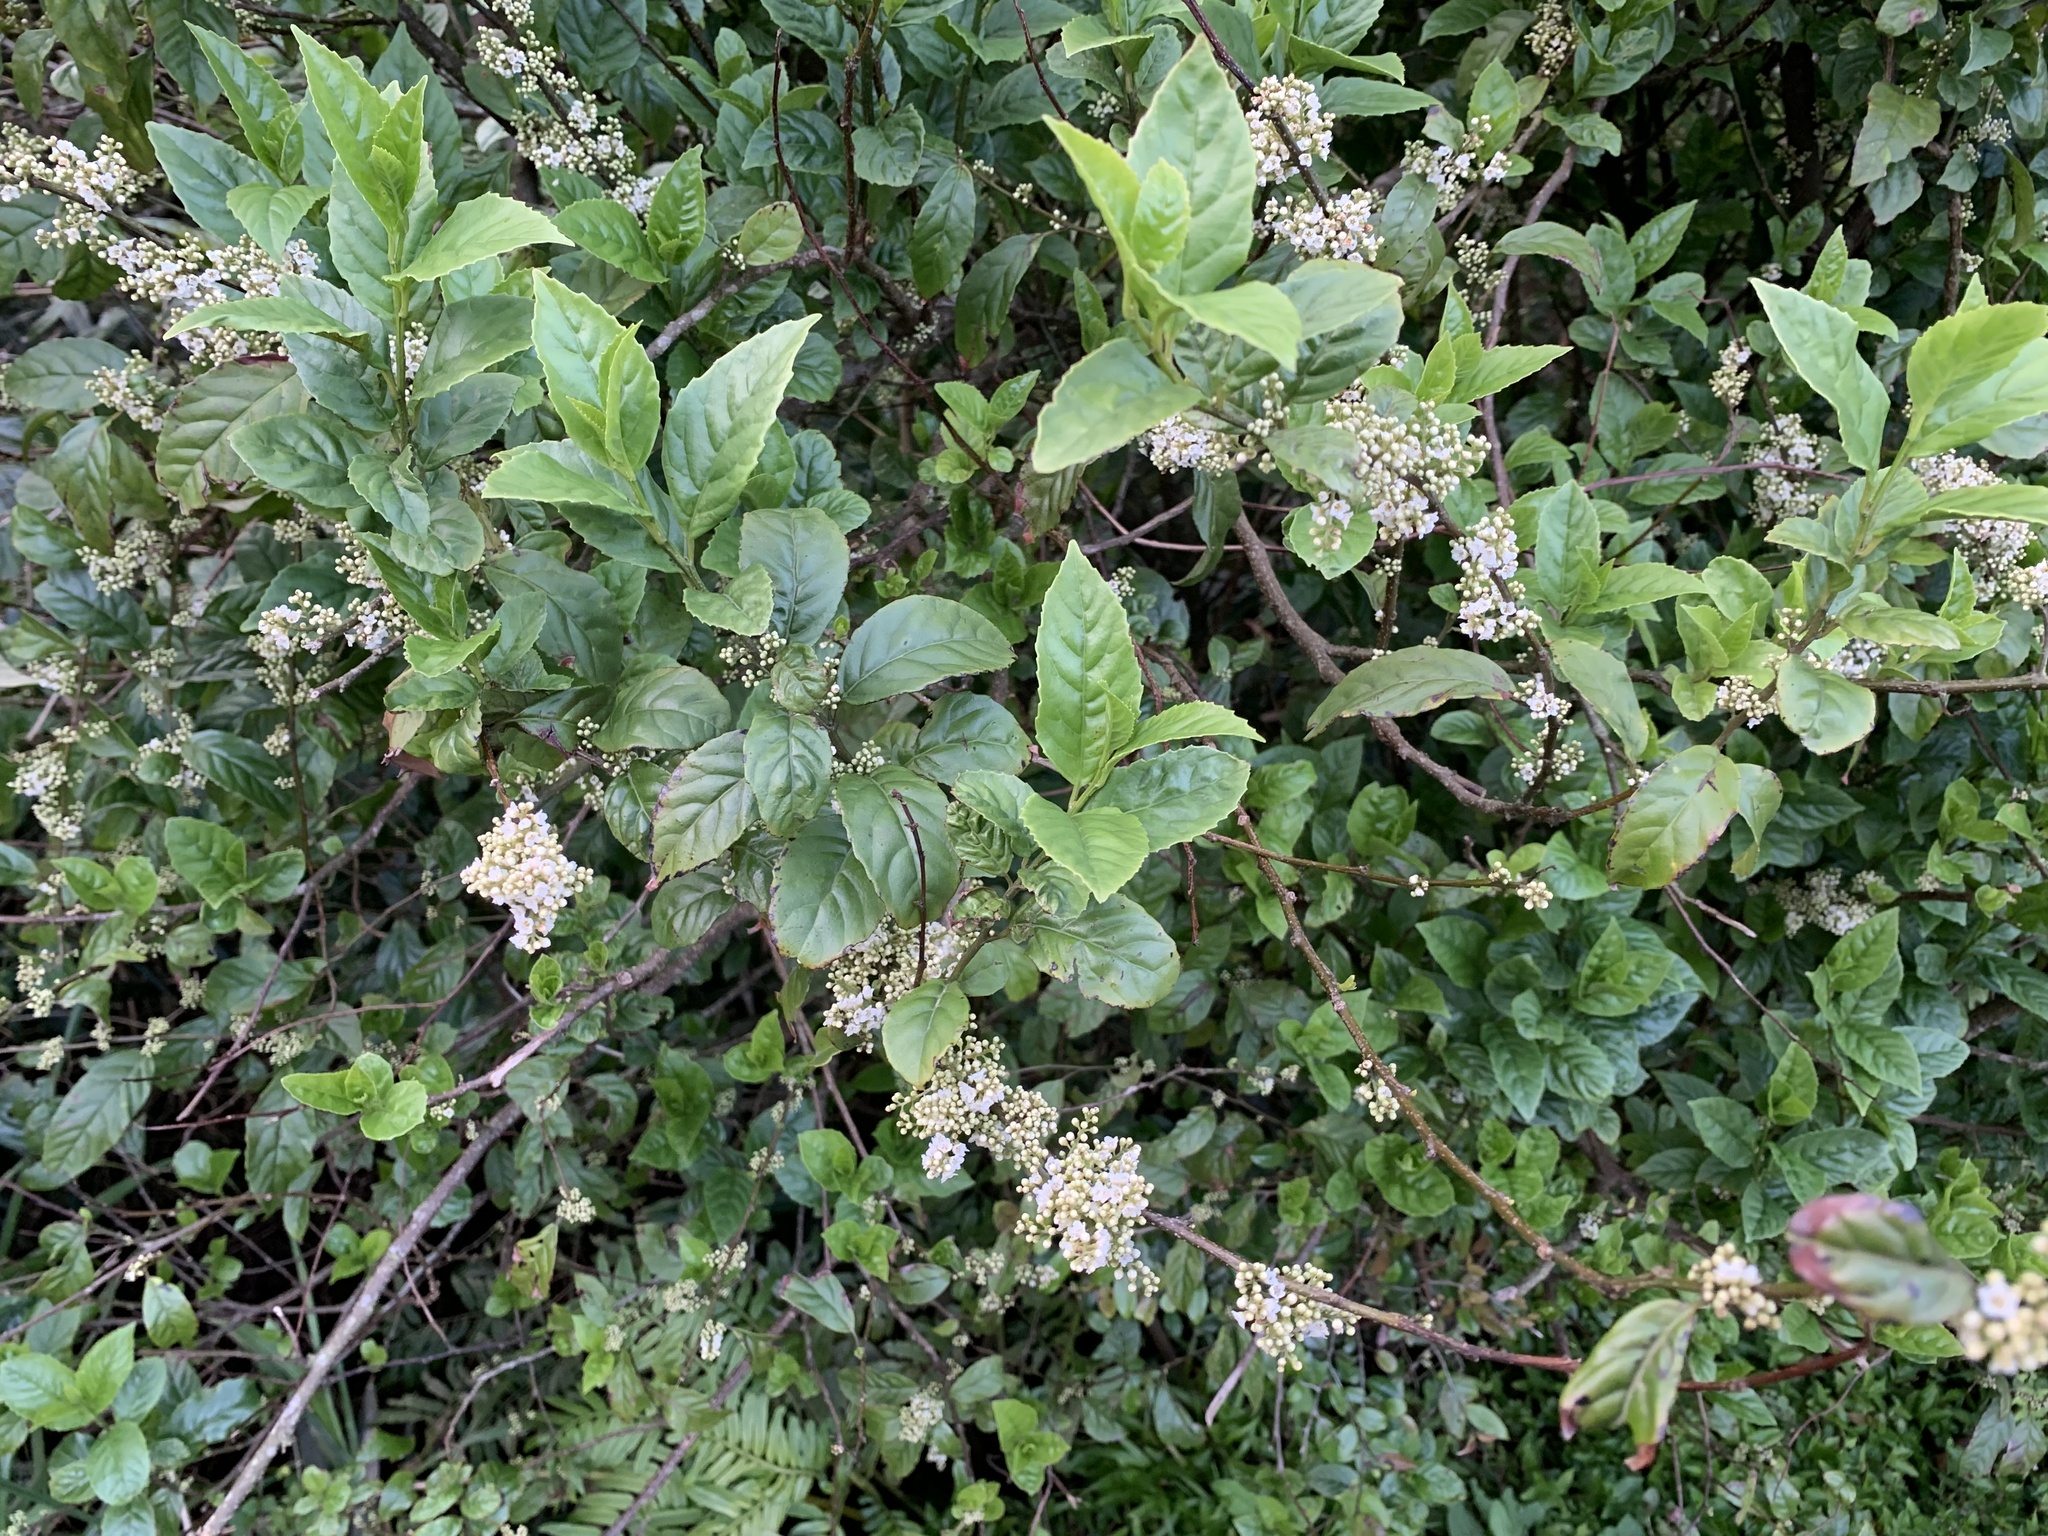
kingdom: Plantae
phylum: Tracheophyta
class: Magnoliopsida
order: Ericales
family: Primulaceae
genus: Maesa
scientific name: Maesa perlaria
